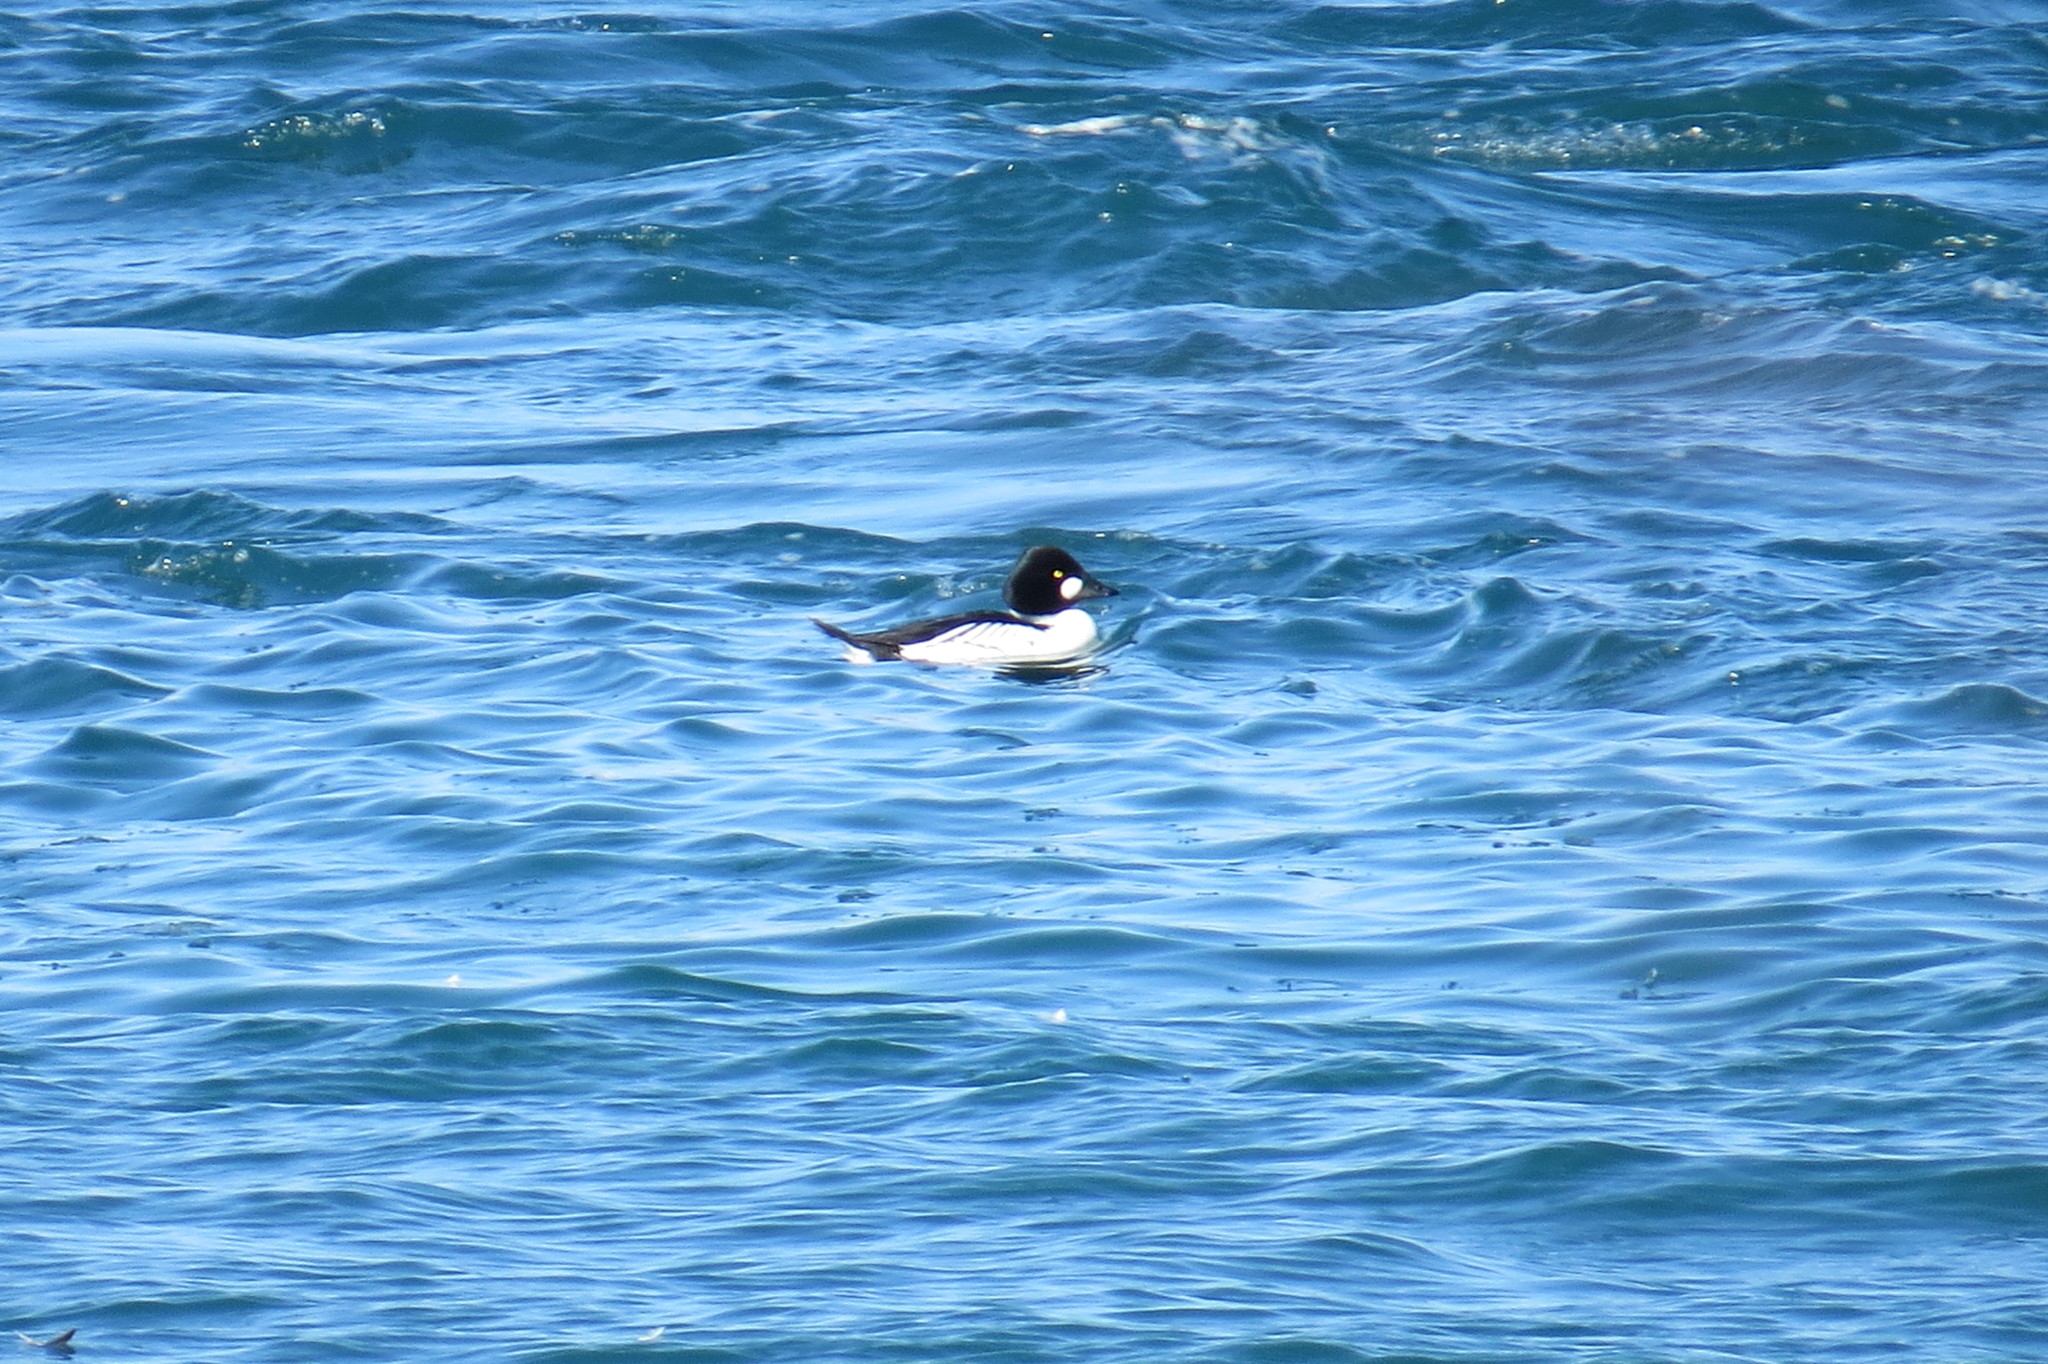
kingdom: Animalia
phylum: Chordata
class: Aves
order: Anseriformes
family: Anatidae
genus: Bucephala
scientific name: Bucephala clangula
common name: Common goldeneye
